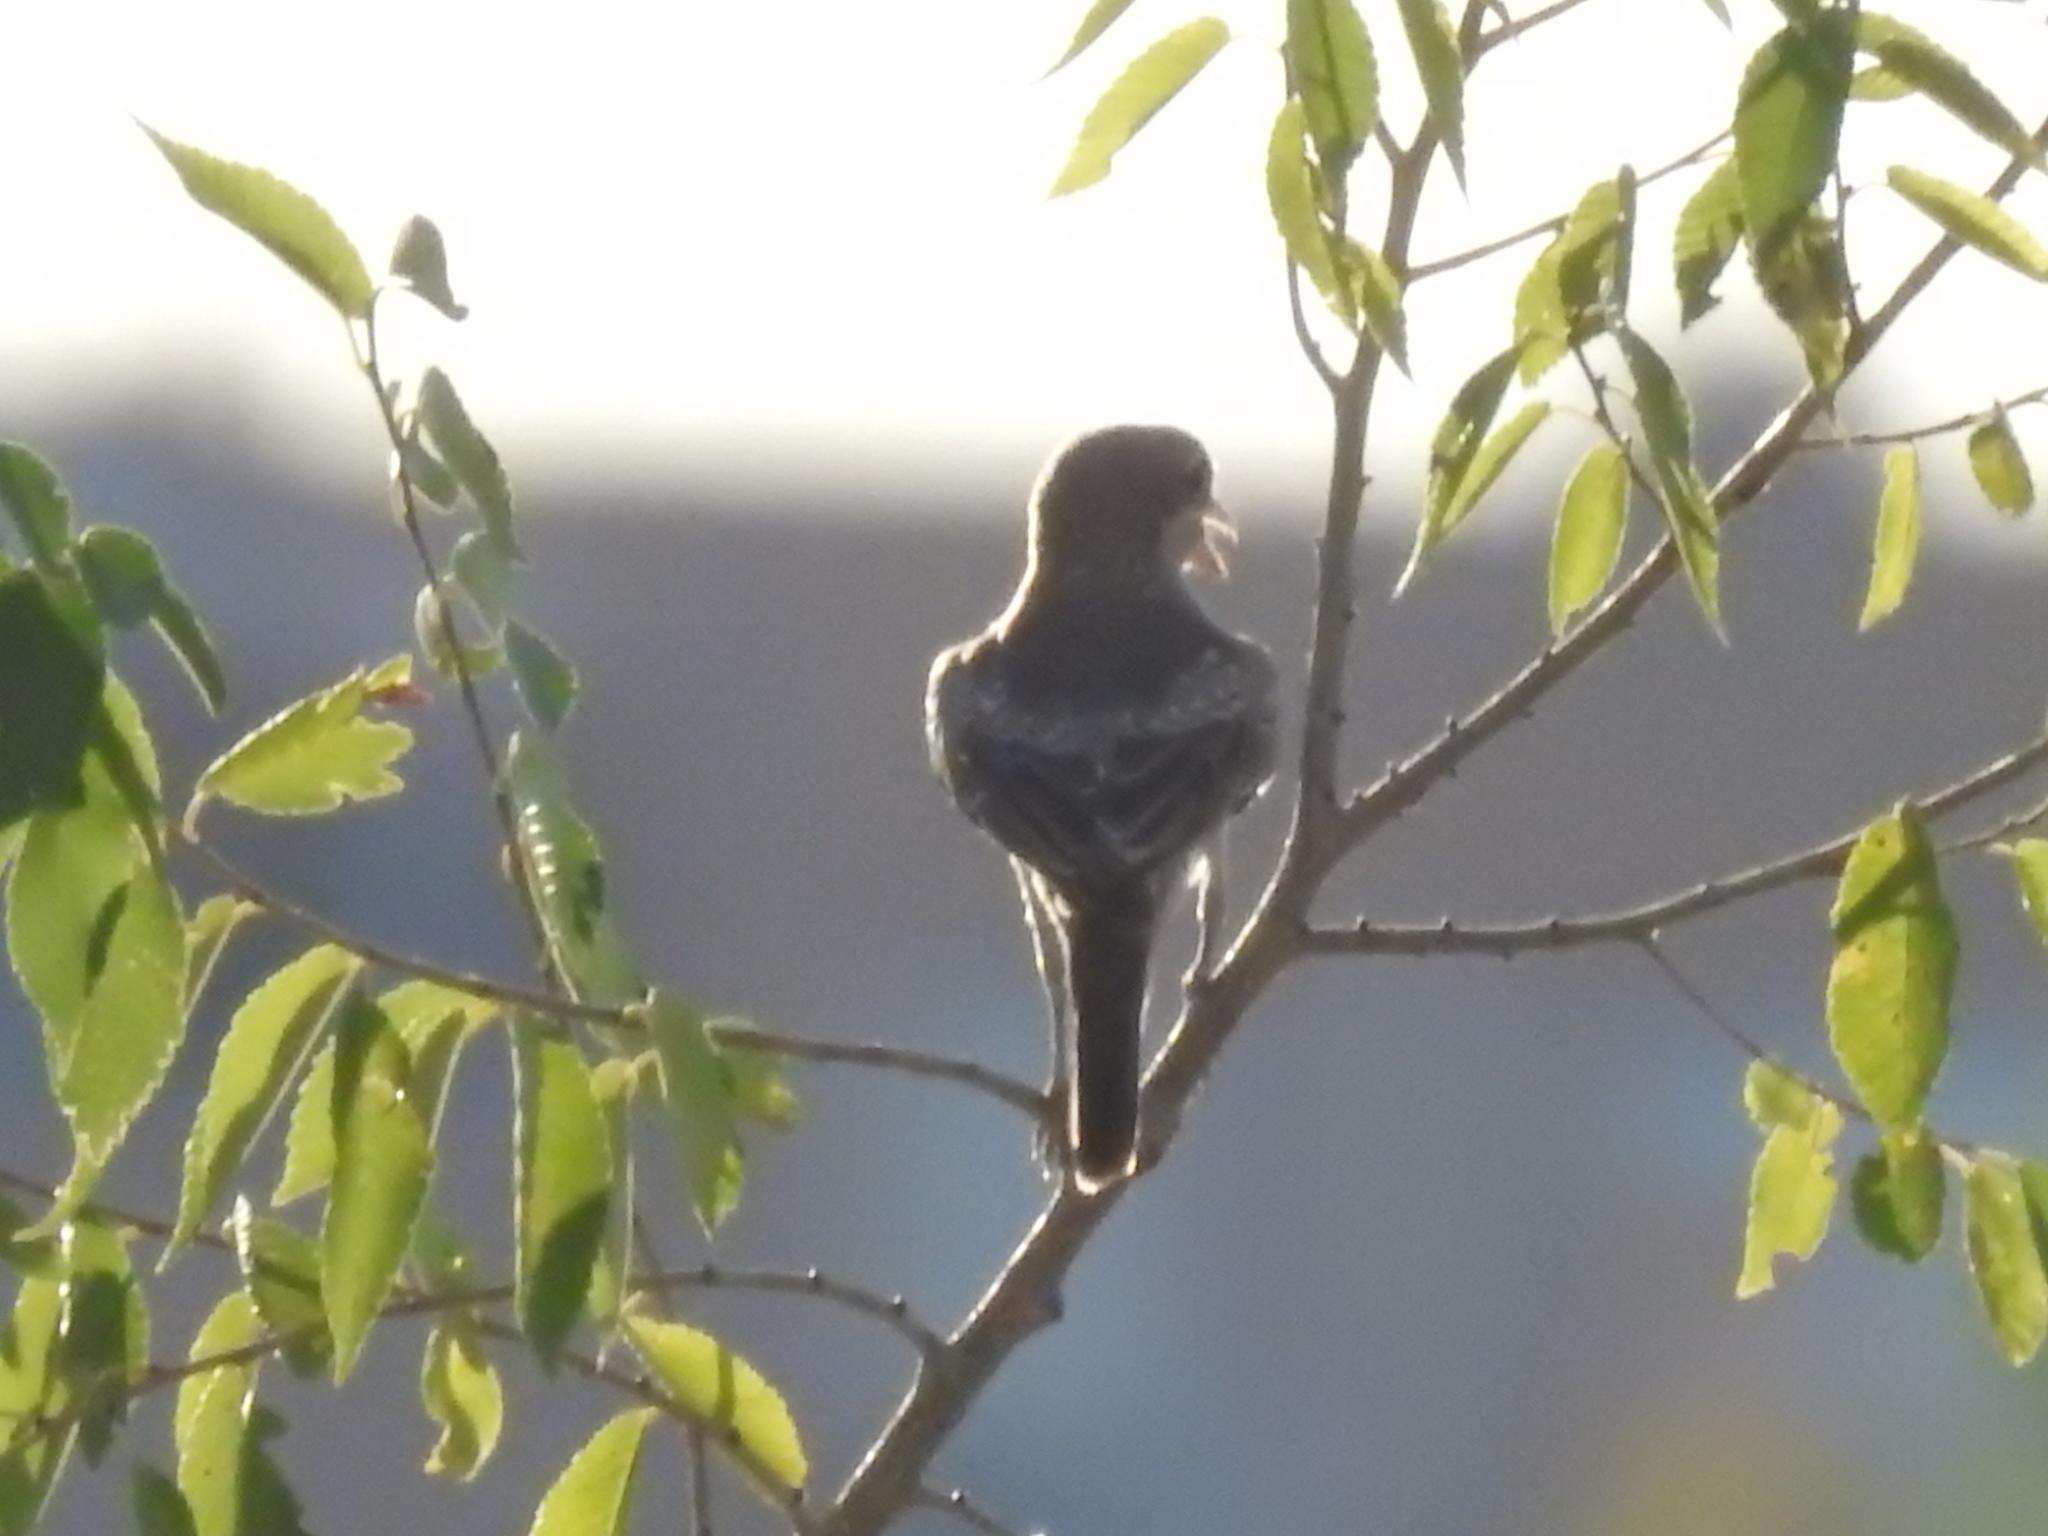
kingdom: Animalia
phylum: Chordata
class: Aves
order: Passeriformes
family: Laniidae
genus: Lanius
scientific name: Lanius senator
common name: Woodchat shrike
